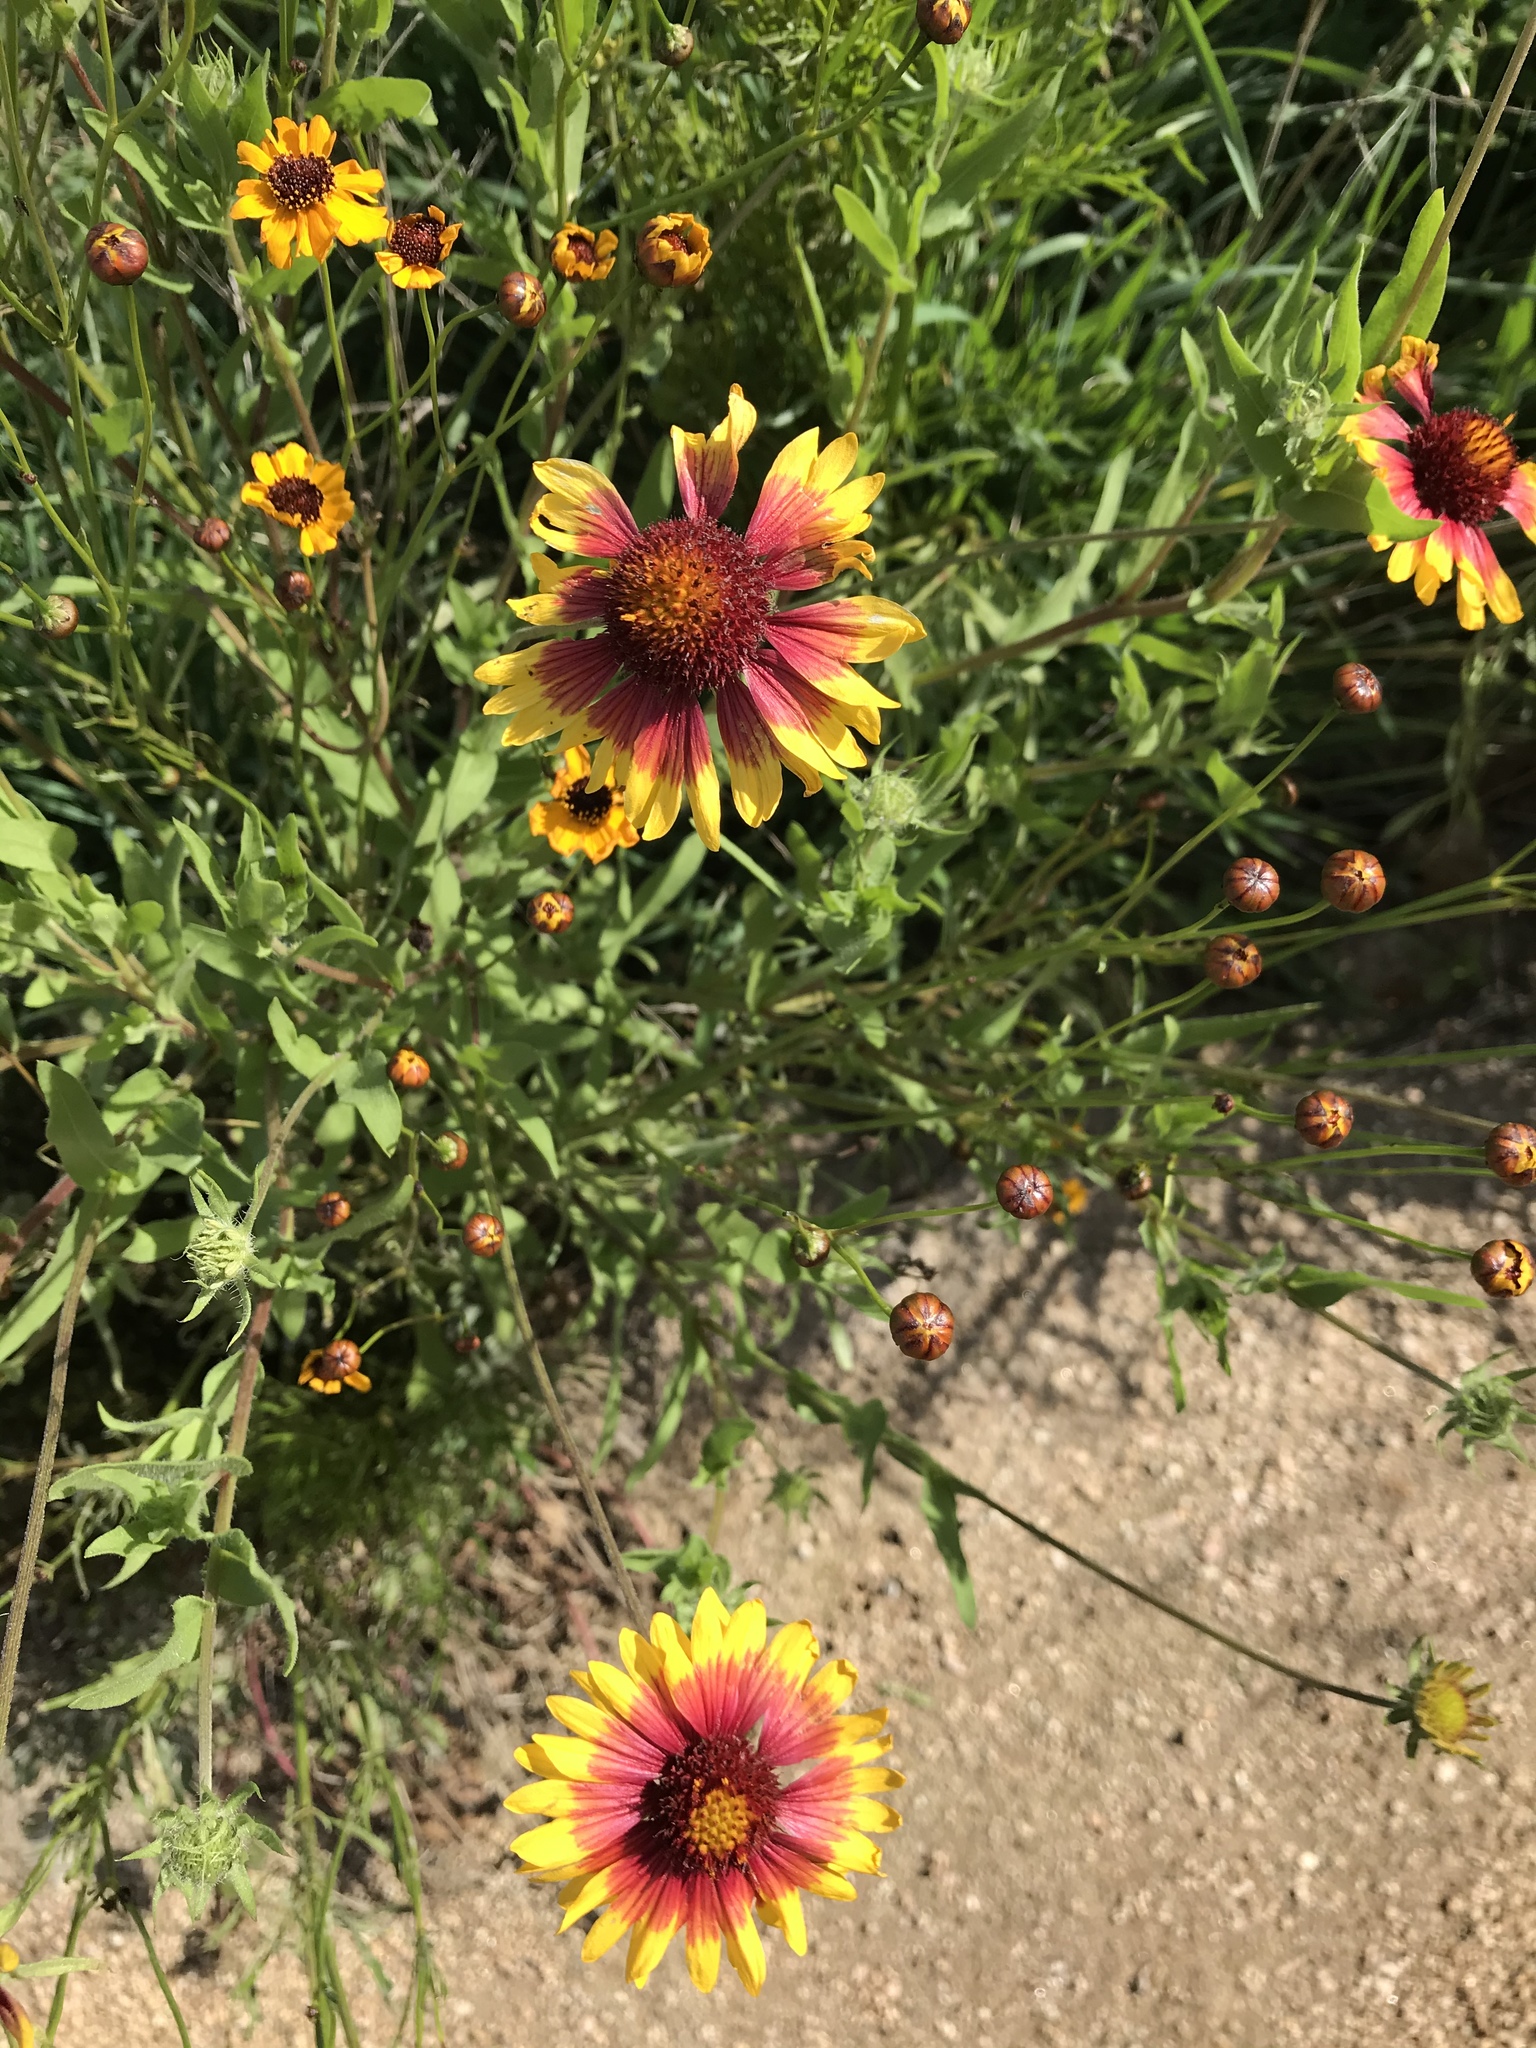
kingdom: Plantae
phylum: Tracheophyta
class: Magnoliopsida
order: Asterales
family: Asteraceae
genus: Gaillardia
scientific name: Gaillardia pulchella
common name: Firewheel
